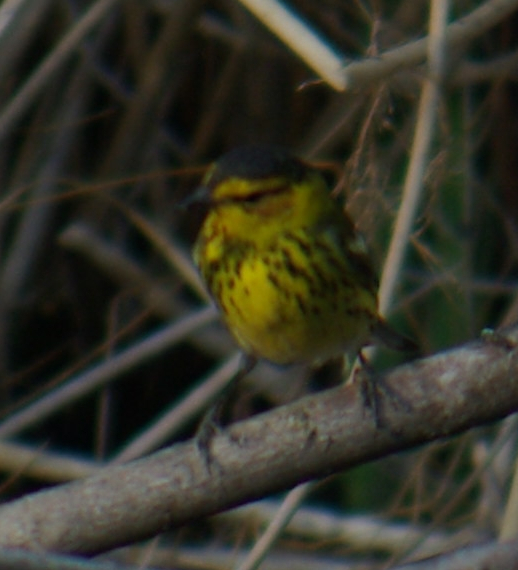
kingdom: Animalia
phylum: Chordata
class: Aves
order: Passeriformes
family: Parulidae
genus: Setophaga
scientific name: Setophaga tigrina
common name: Cape may warbler
